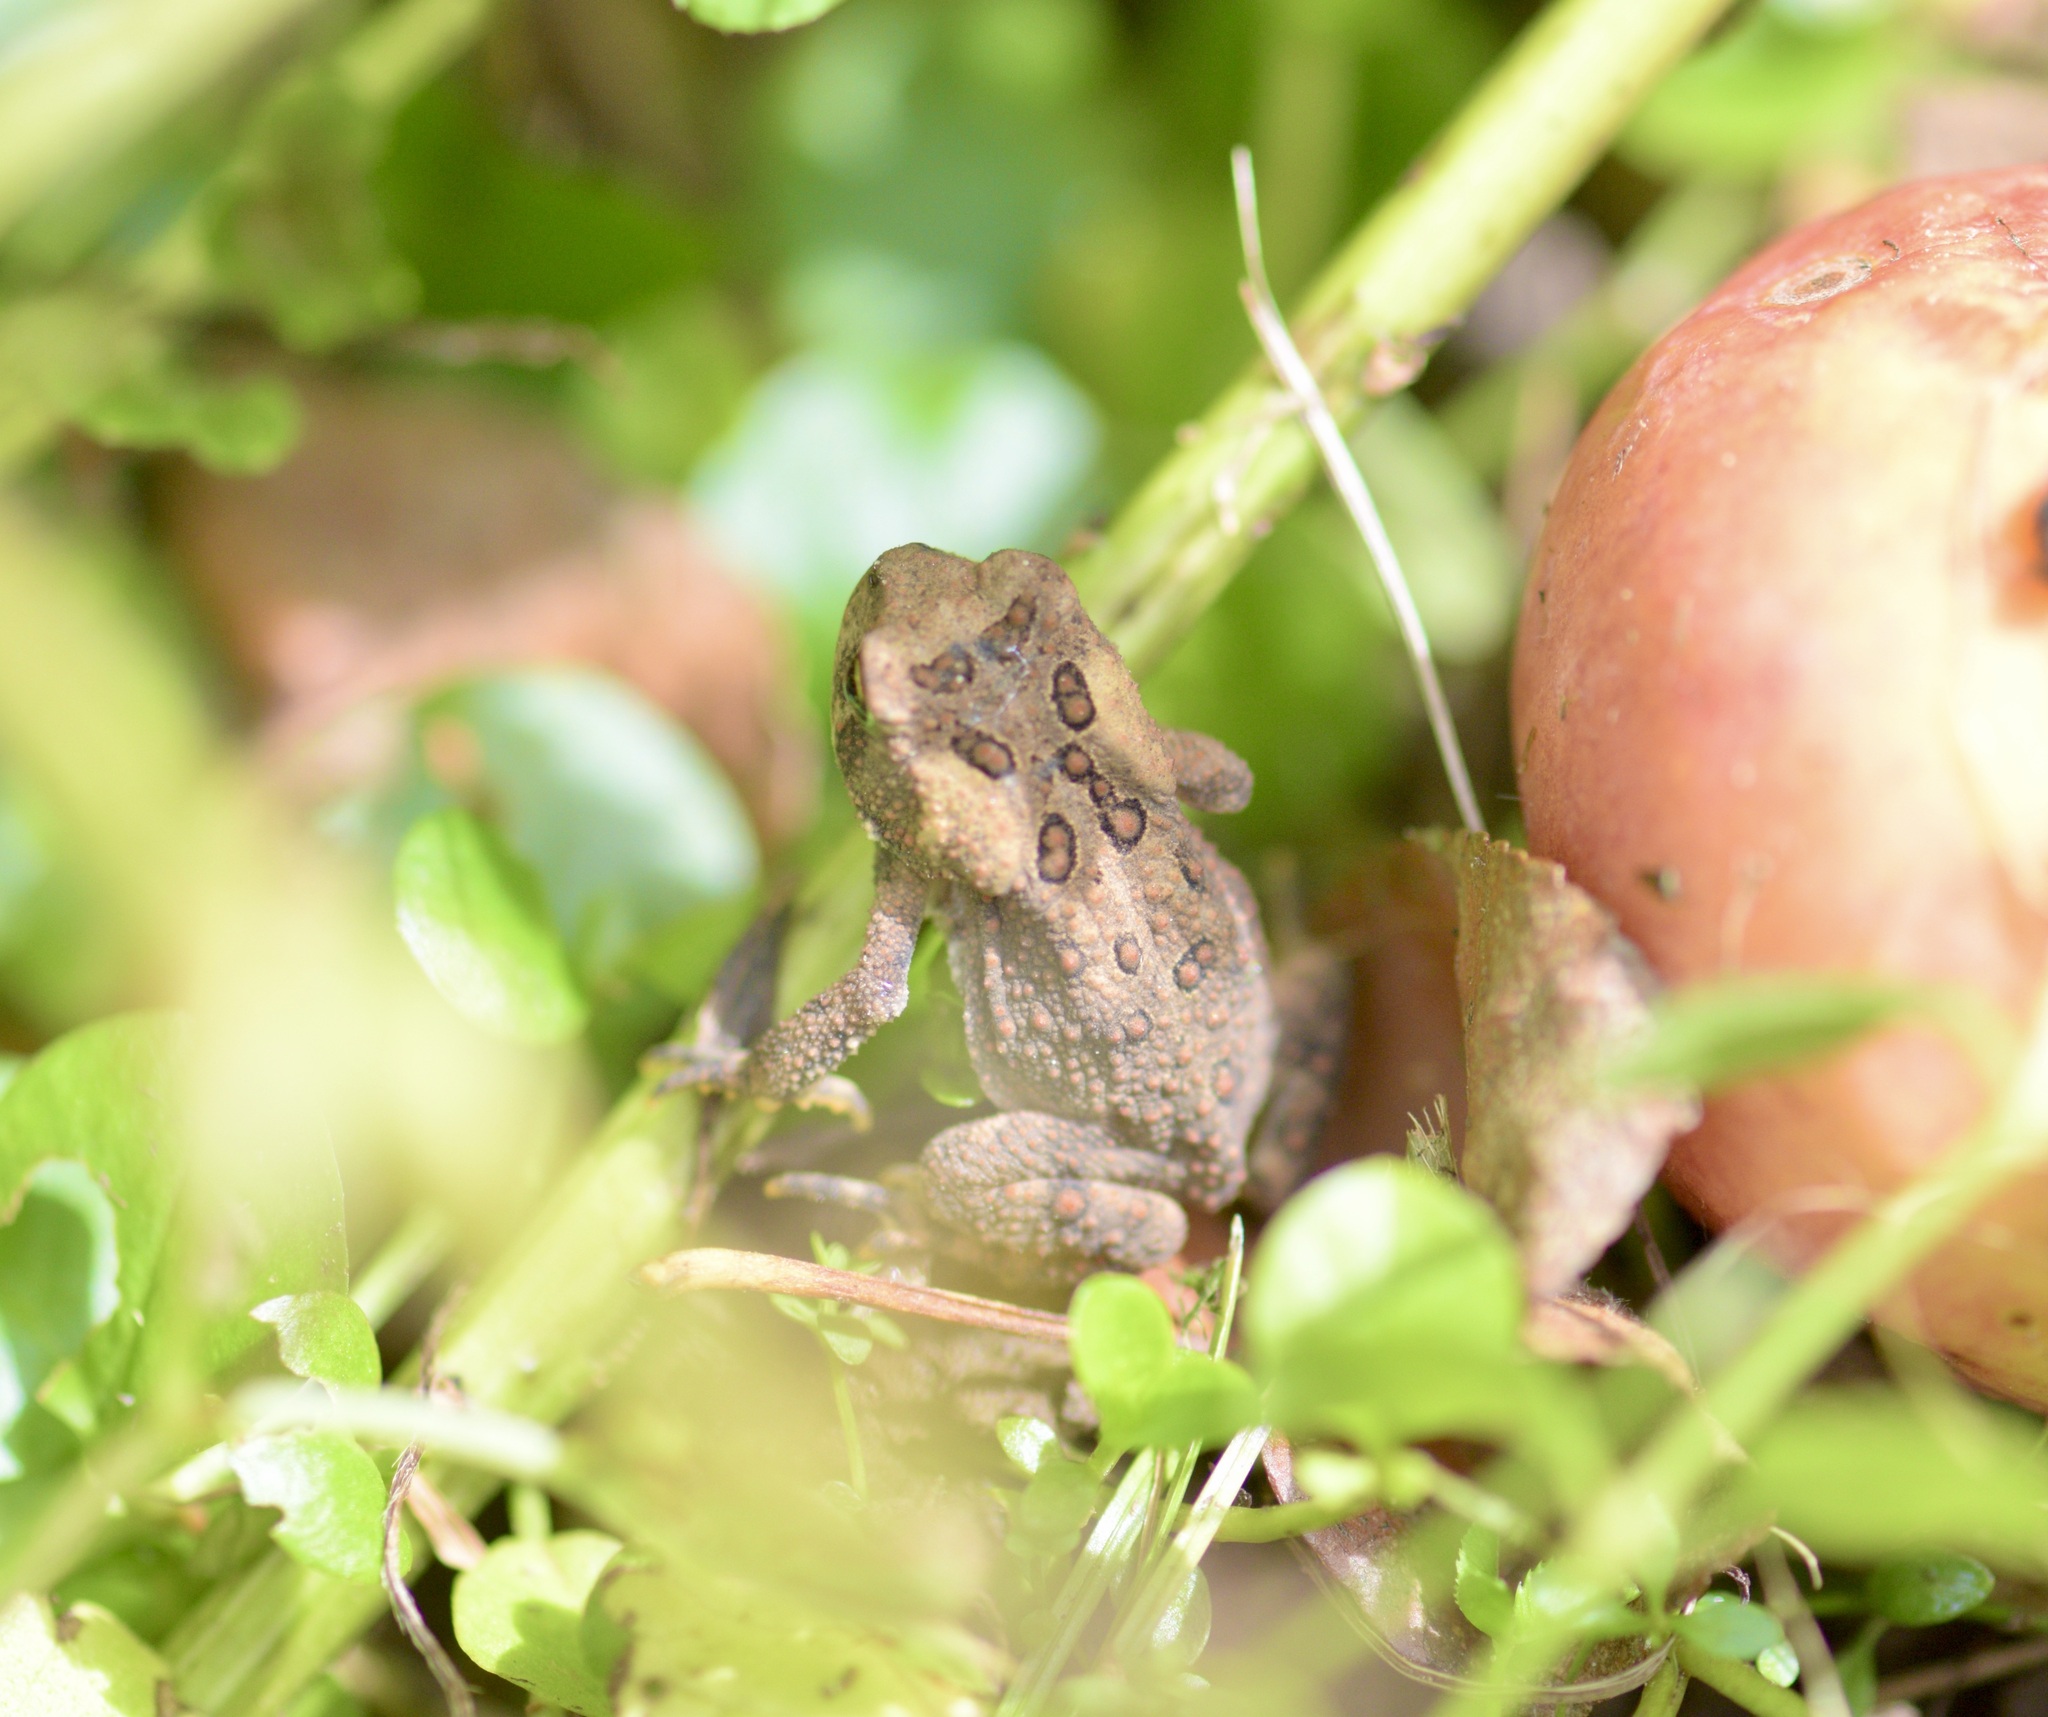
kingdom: Animalia
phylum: Chordata
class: Amphibia
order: Anura
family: Bufonidae
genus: Anaxyrus
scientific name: Anaxyrus americanus
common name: American toad
